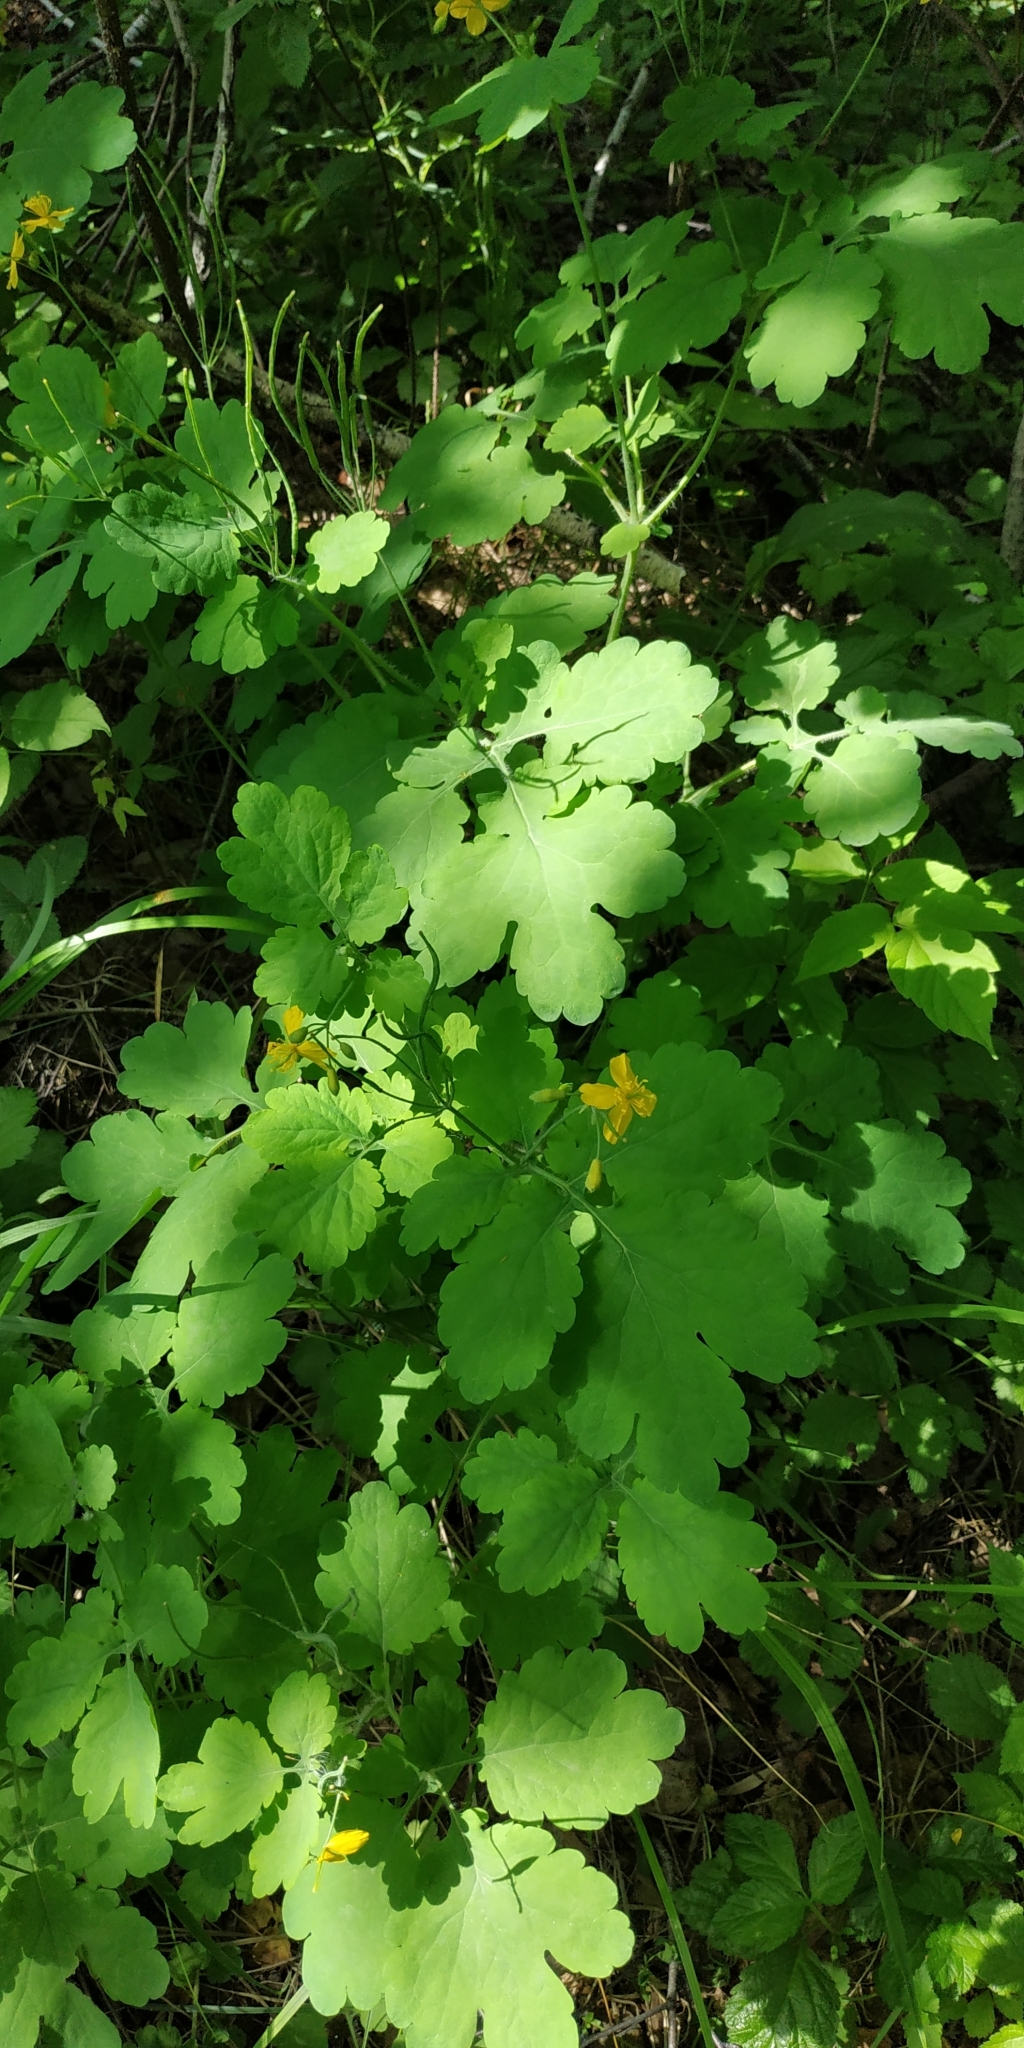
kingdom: Plantae
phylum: Tracheophyta
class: Magnoliopsida
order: Ranunculales
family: Papaveraceae
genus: Chelidonium
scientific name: Chelidonium majus
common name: Greater celandine
